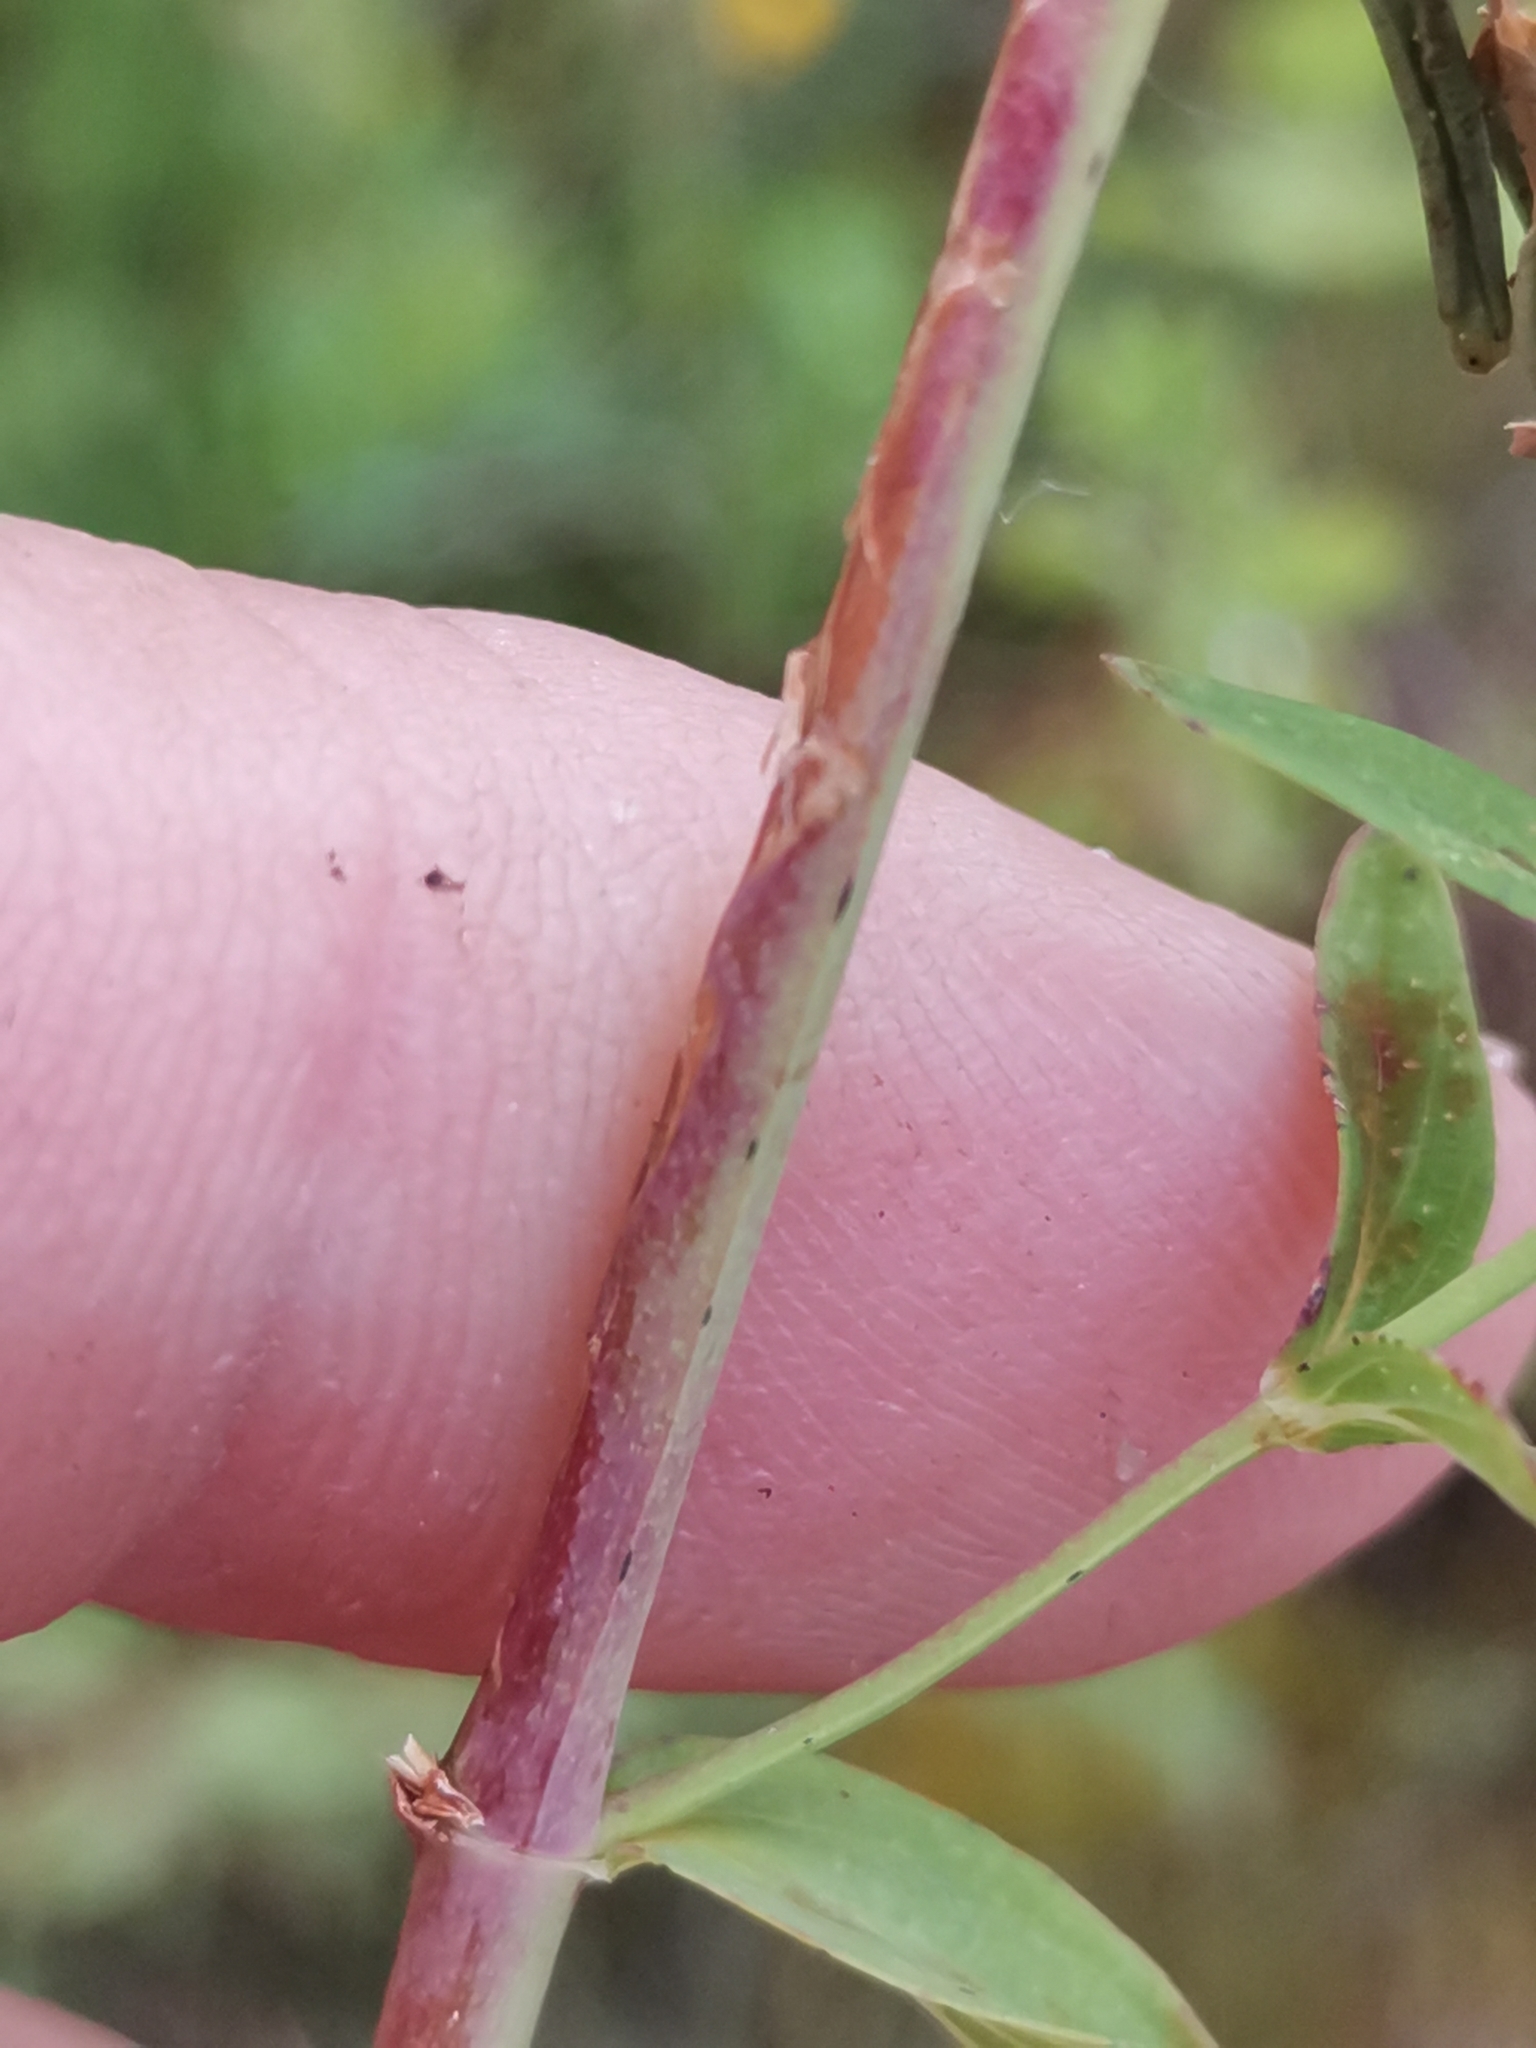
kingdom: Plantae
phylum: Tracheophyta
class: Magnoliopsida
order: Malpighiales
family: Hypericaceae
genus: Hypericum
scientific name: Hypericum perforatum
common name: Common st. johnswort
